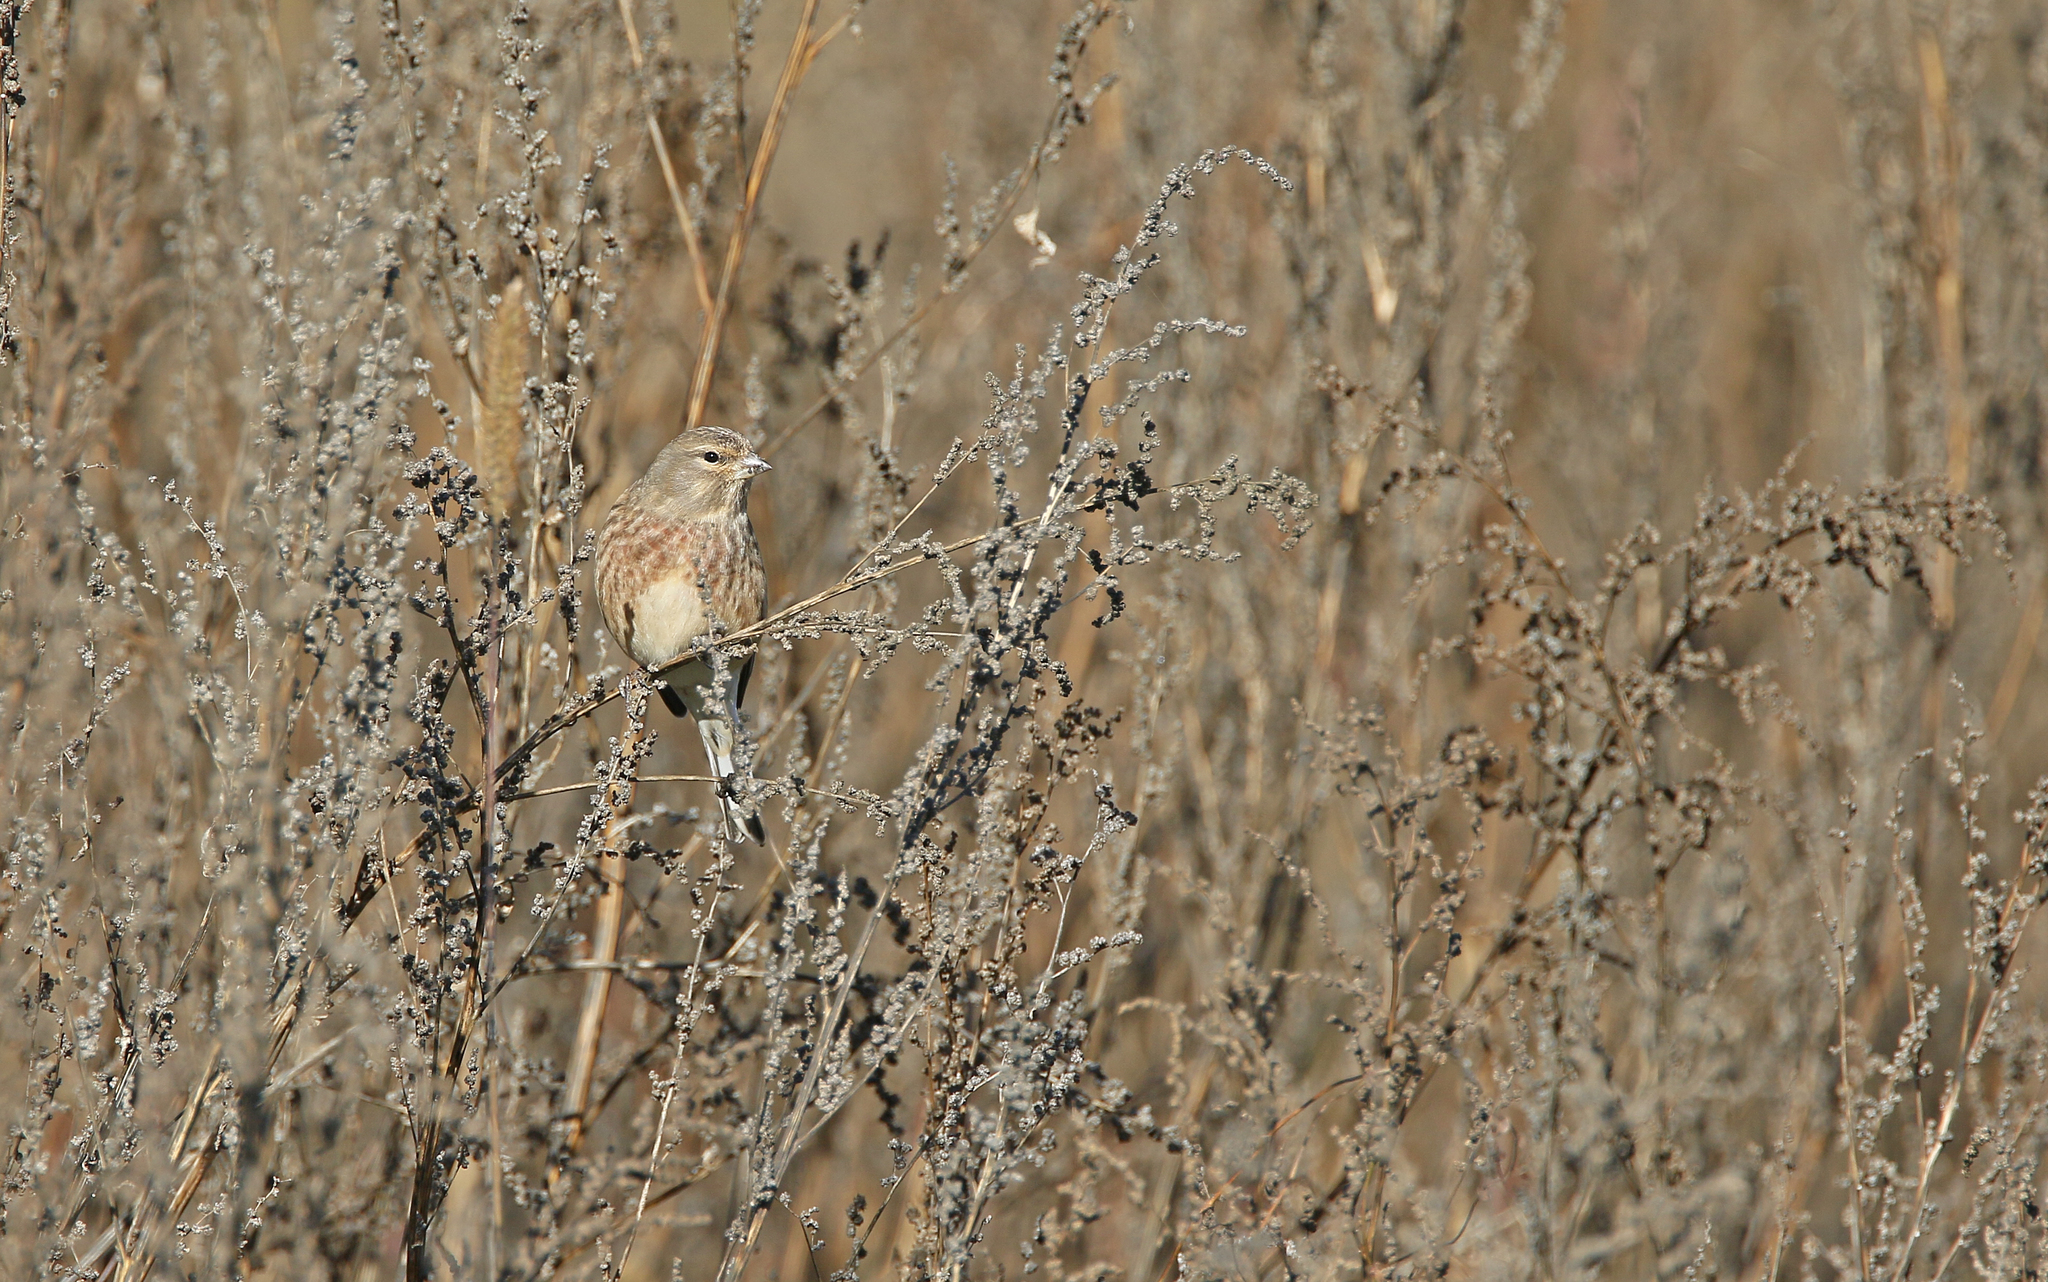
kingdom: Animalia
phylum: Chordata
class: Aves
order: Passeriformes
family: Fringillidae
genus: Linaria
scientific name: Linaria cannabina
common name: Common linnet
